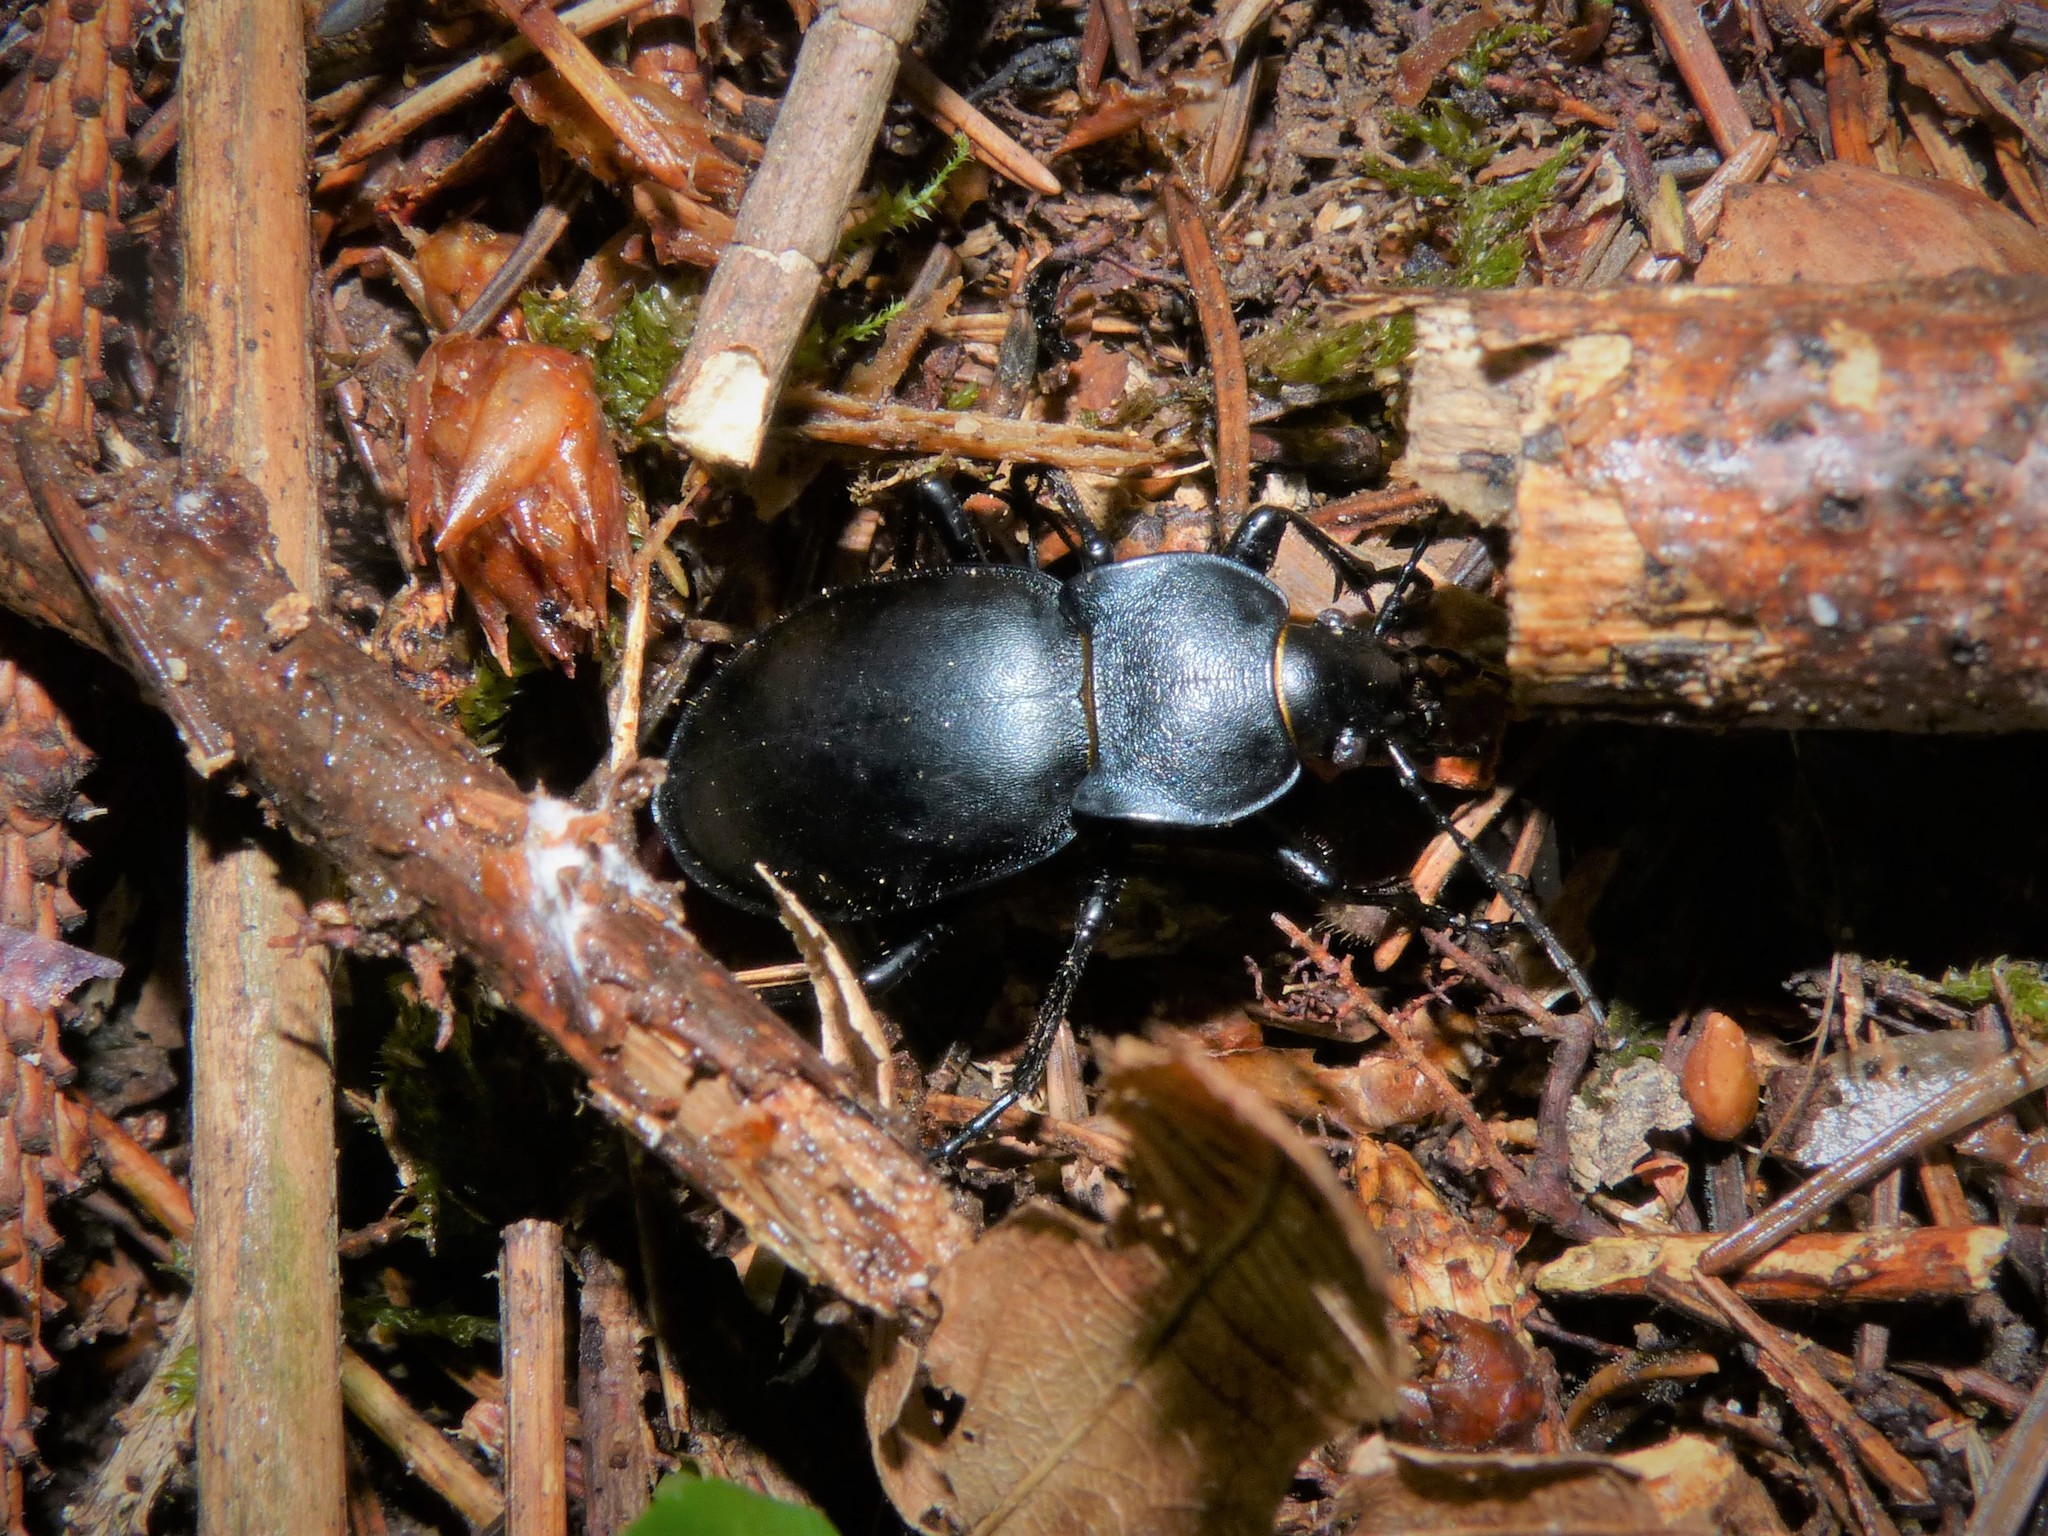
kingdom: Animalia
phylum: Arthropoda
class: Insecta
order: Coleoptera
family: Carabidae
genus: Carabus
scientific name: Carabus glabratus
